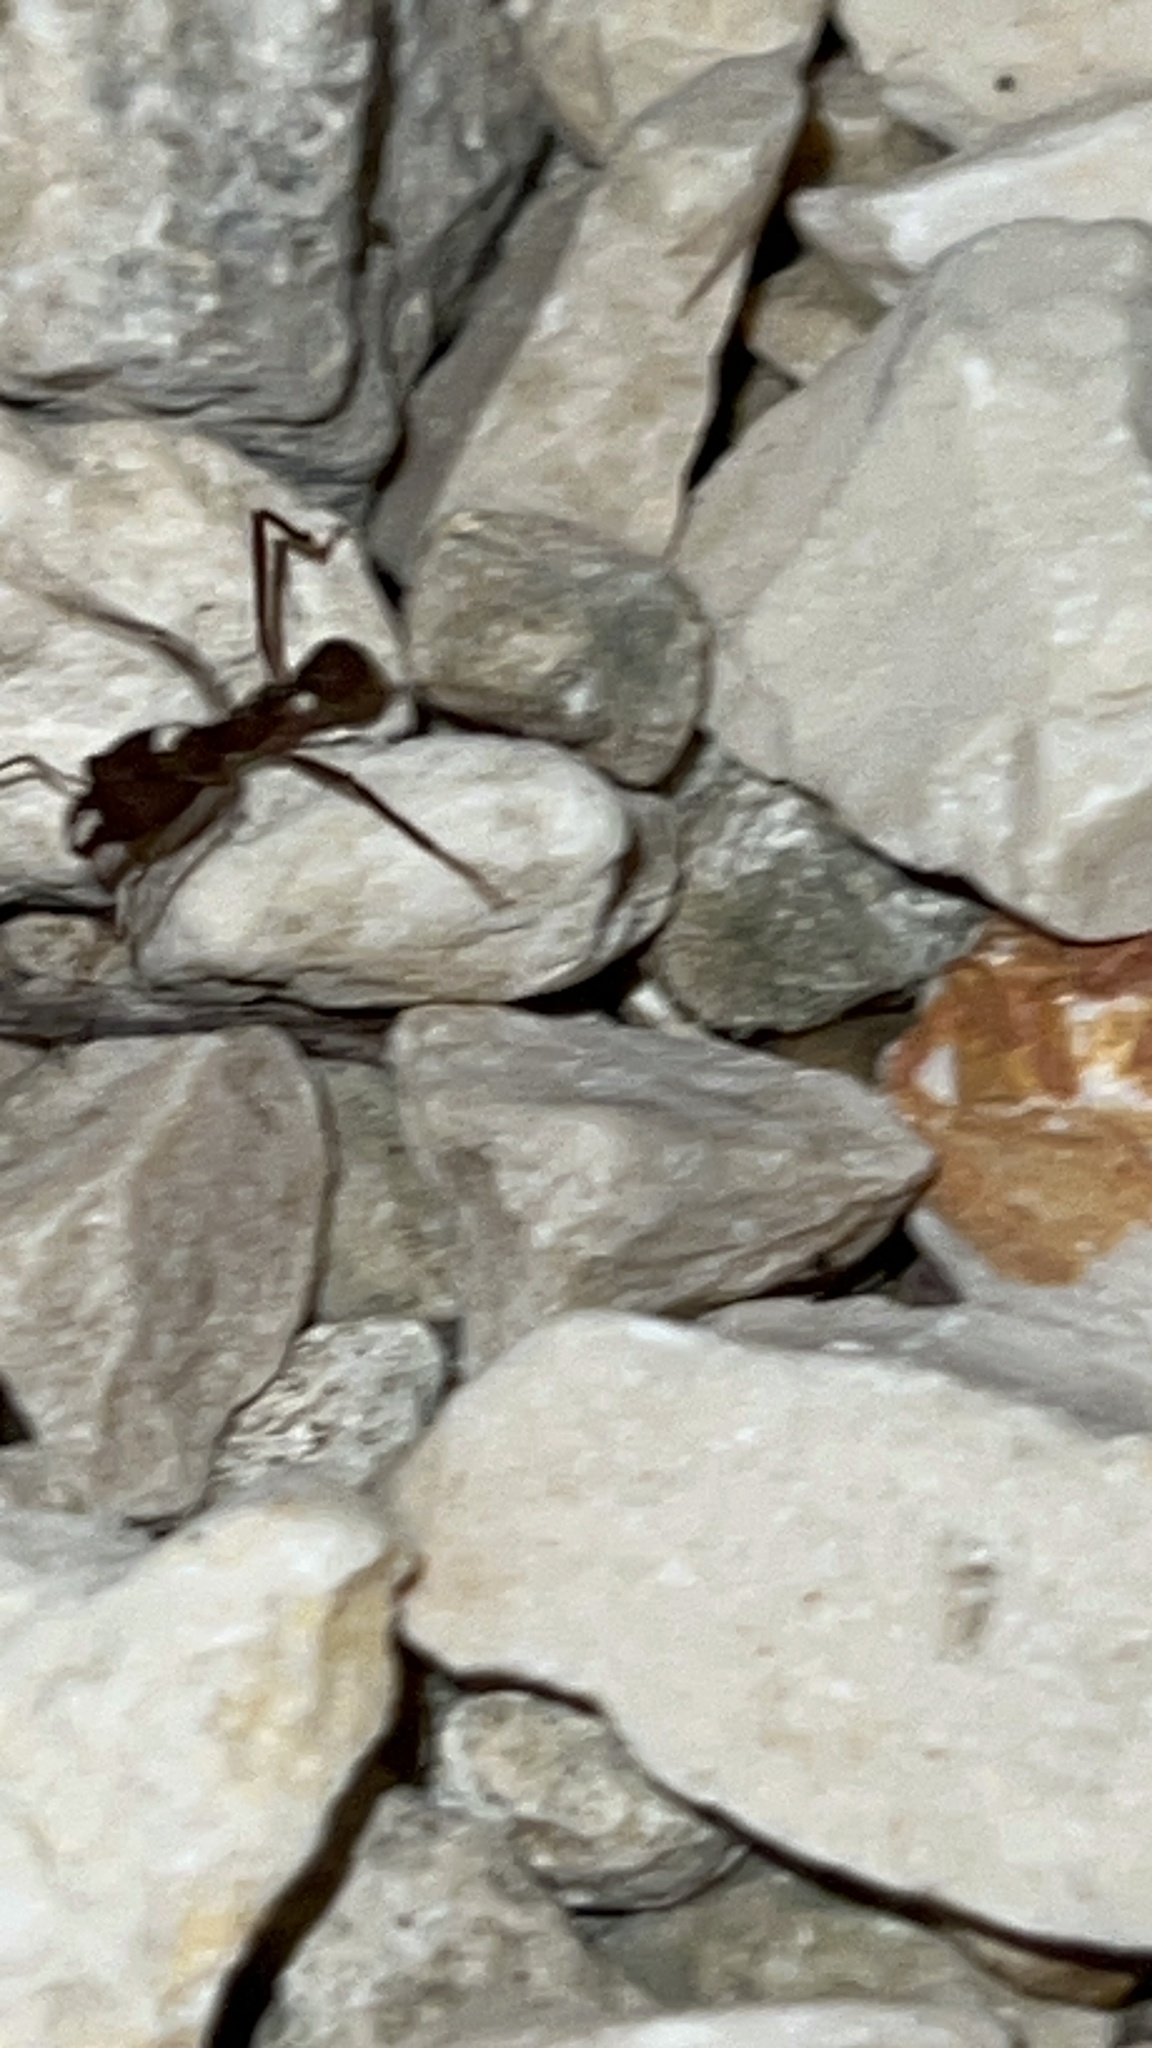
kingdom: Animalia
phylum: Arthropoda
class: Insecta
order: Hymenoptera
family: Formicidae
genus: Atta
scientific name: Atta mexicana
